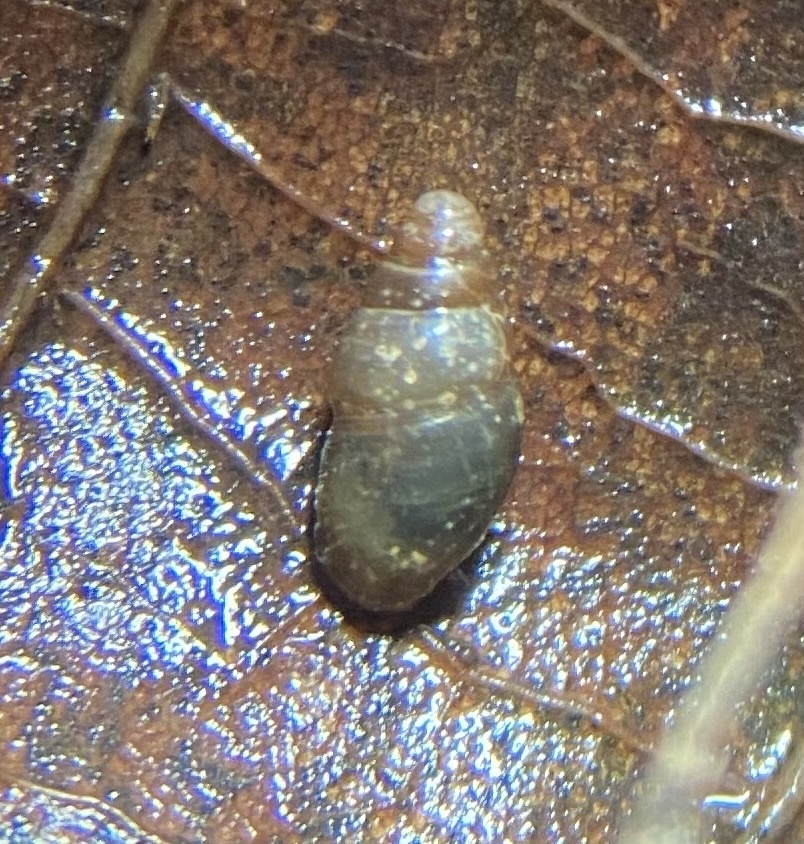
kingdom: Animalia
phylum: Mollusca
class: Gastropoda
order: Stylommatophora
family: Cochlicopidae
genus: Cochlicopa
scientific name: Cochlicopa lubrica
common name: Glossy pillar snail
